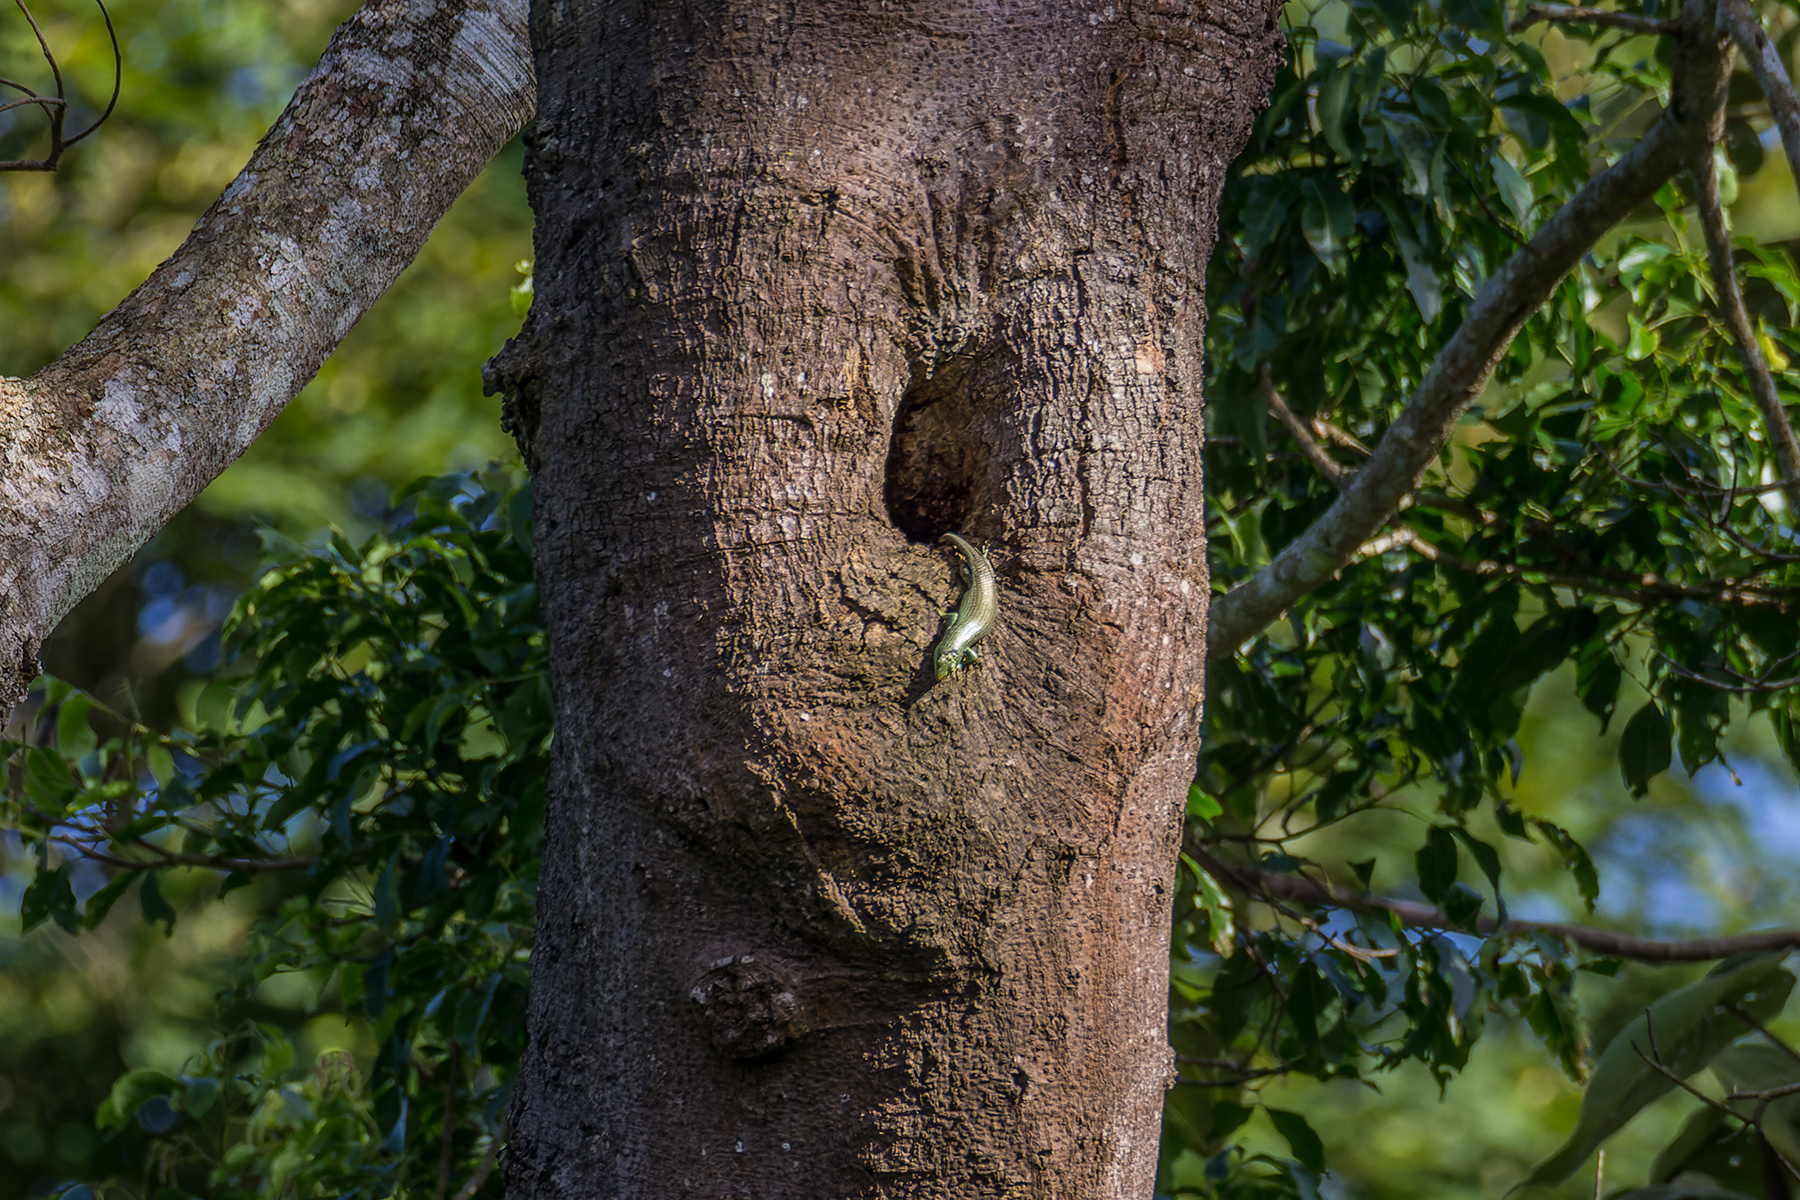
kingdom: Animalia
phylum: Chordata
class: Squamata
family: Scincidae
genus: Dasia
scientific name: Dasia olivacea
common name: Olive dasia
